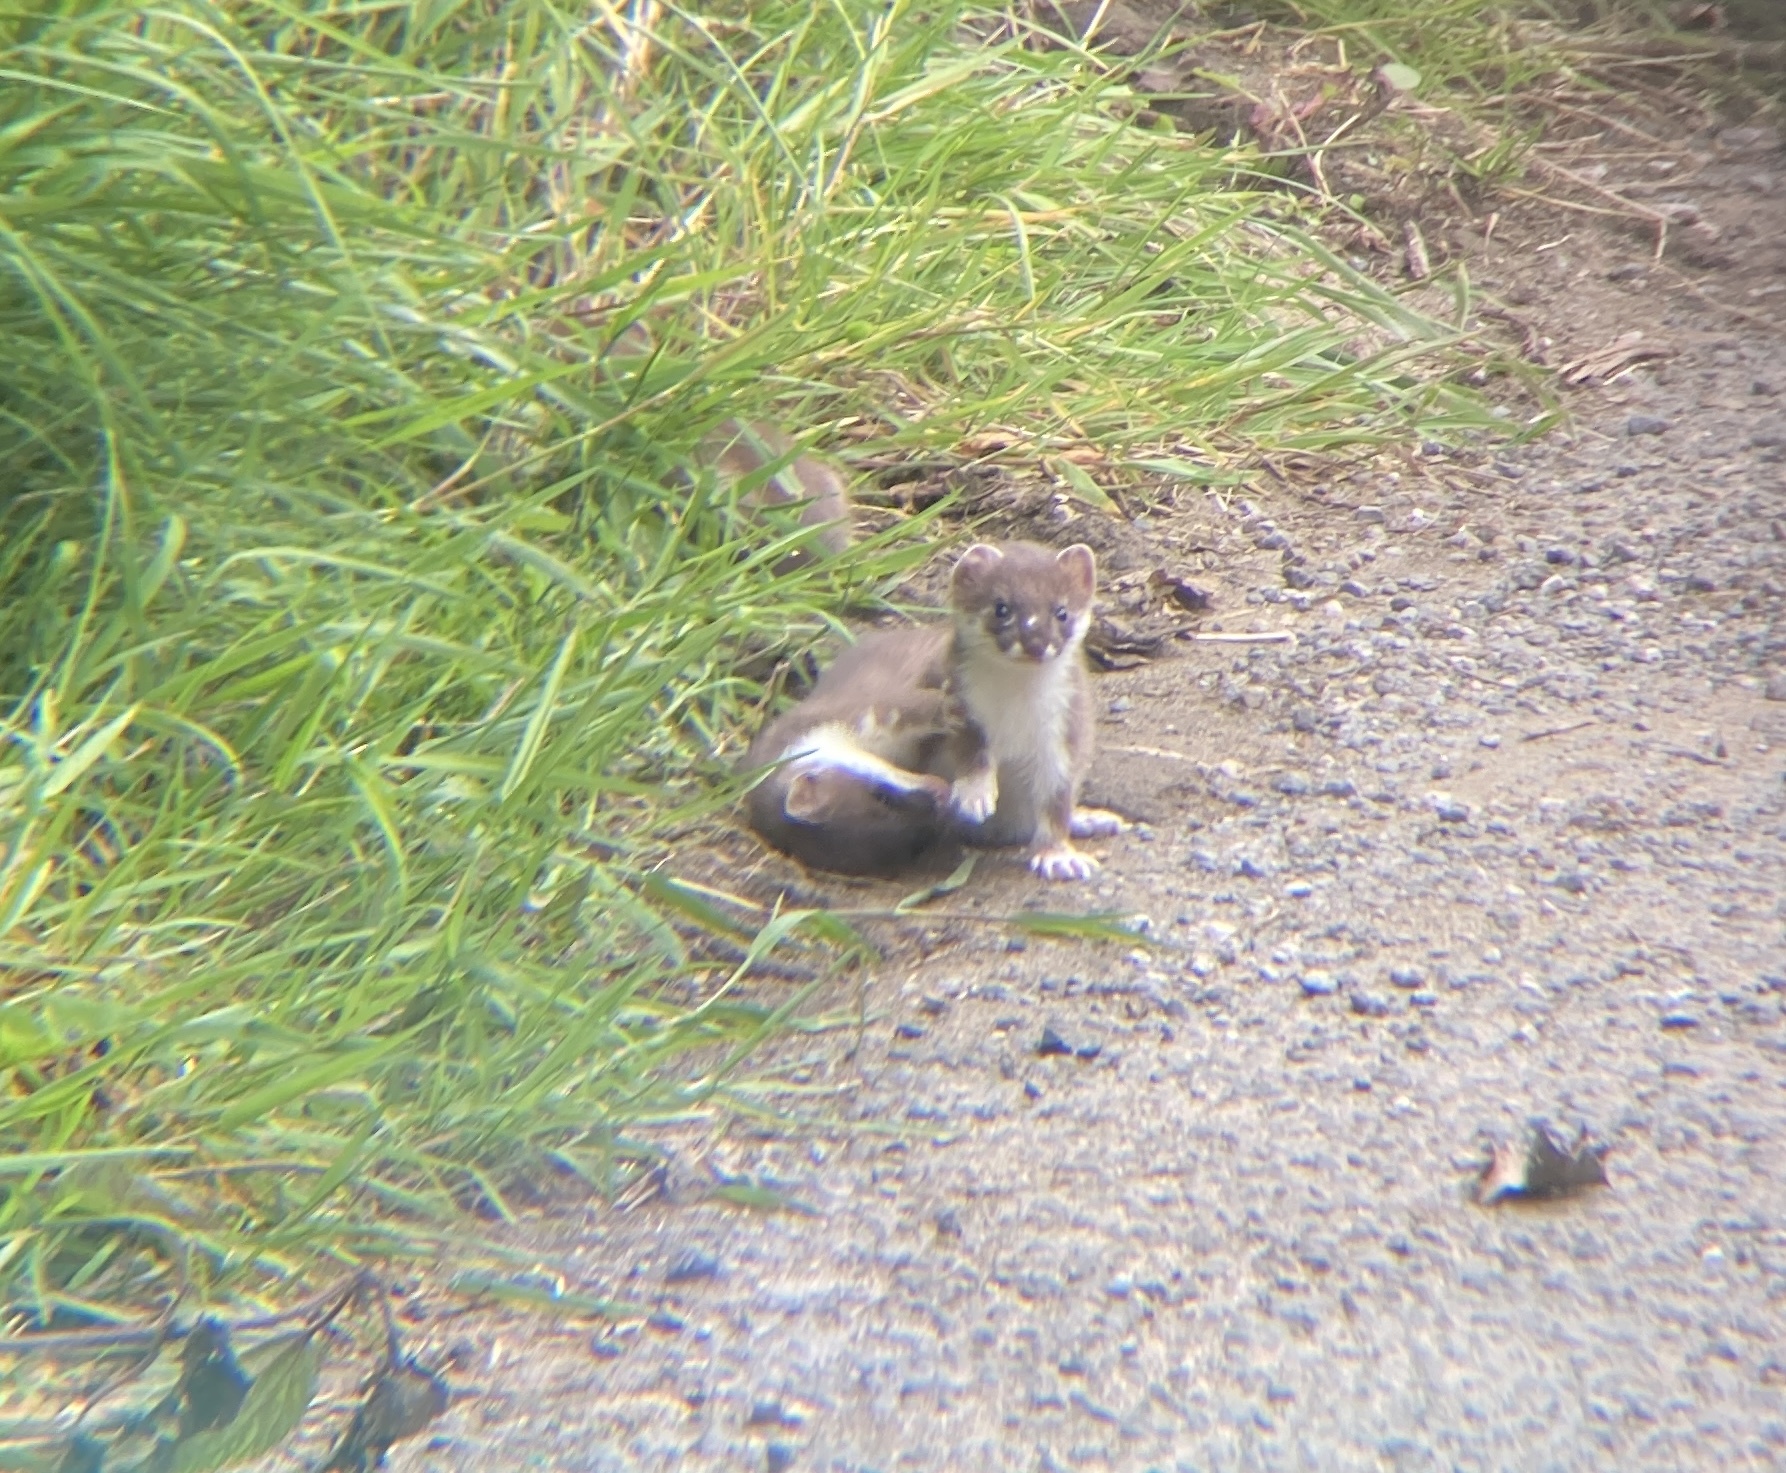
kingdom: Animalia
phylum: Chordata
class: Mammalia
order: Carnivora
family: Mustelidae
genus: Mustela
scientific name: Mustela erminea
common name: Stoat
